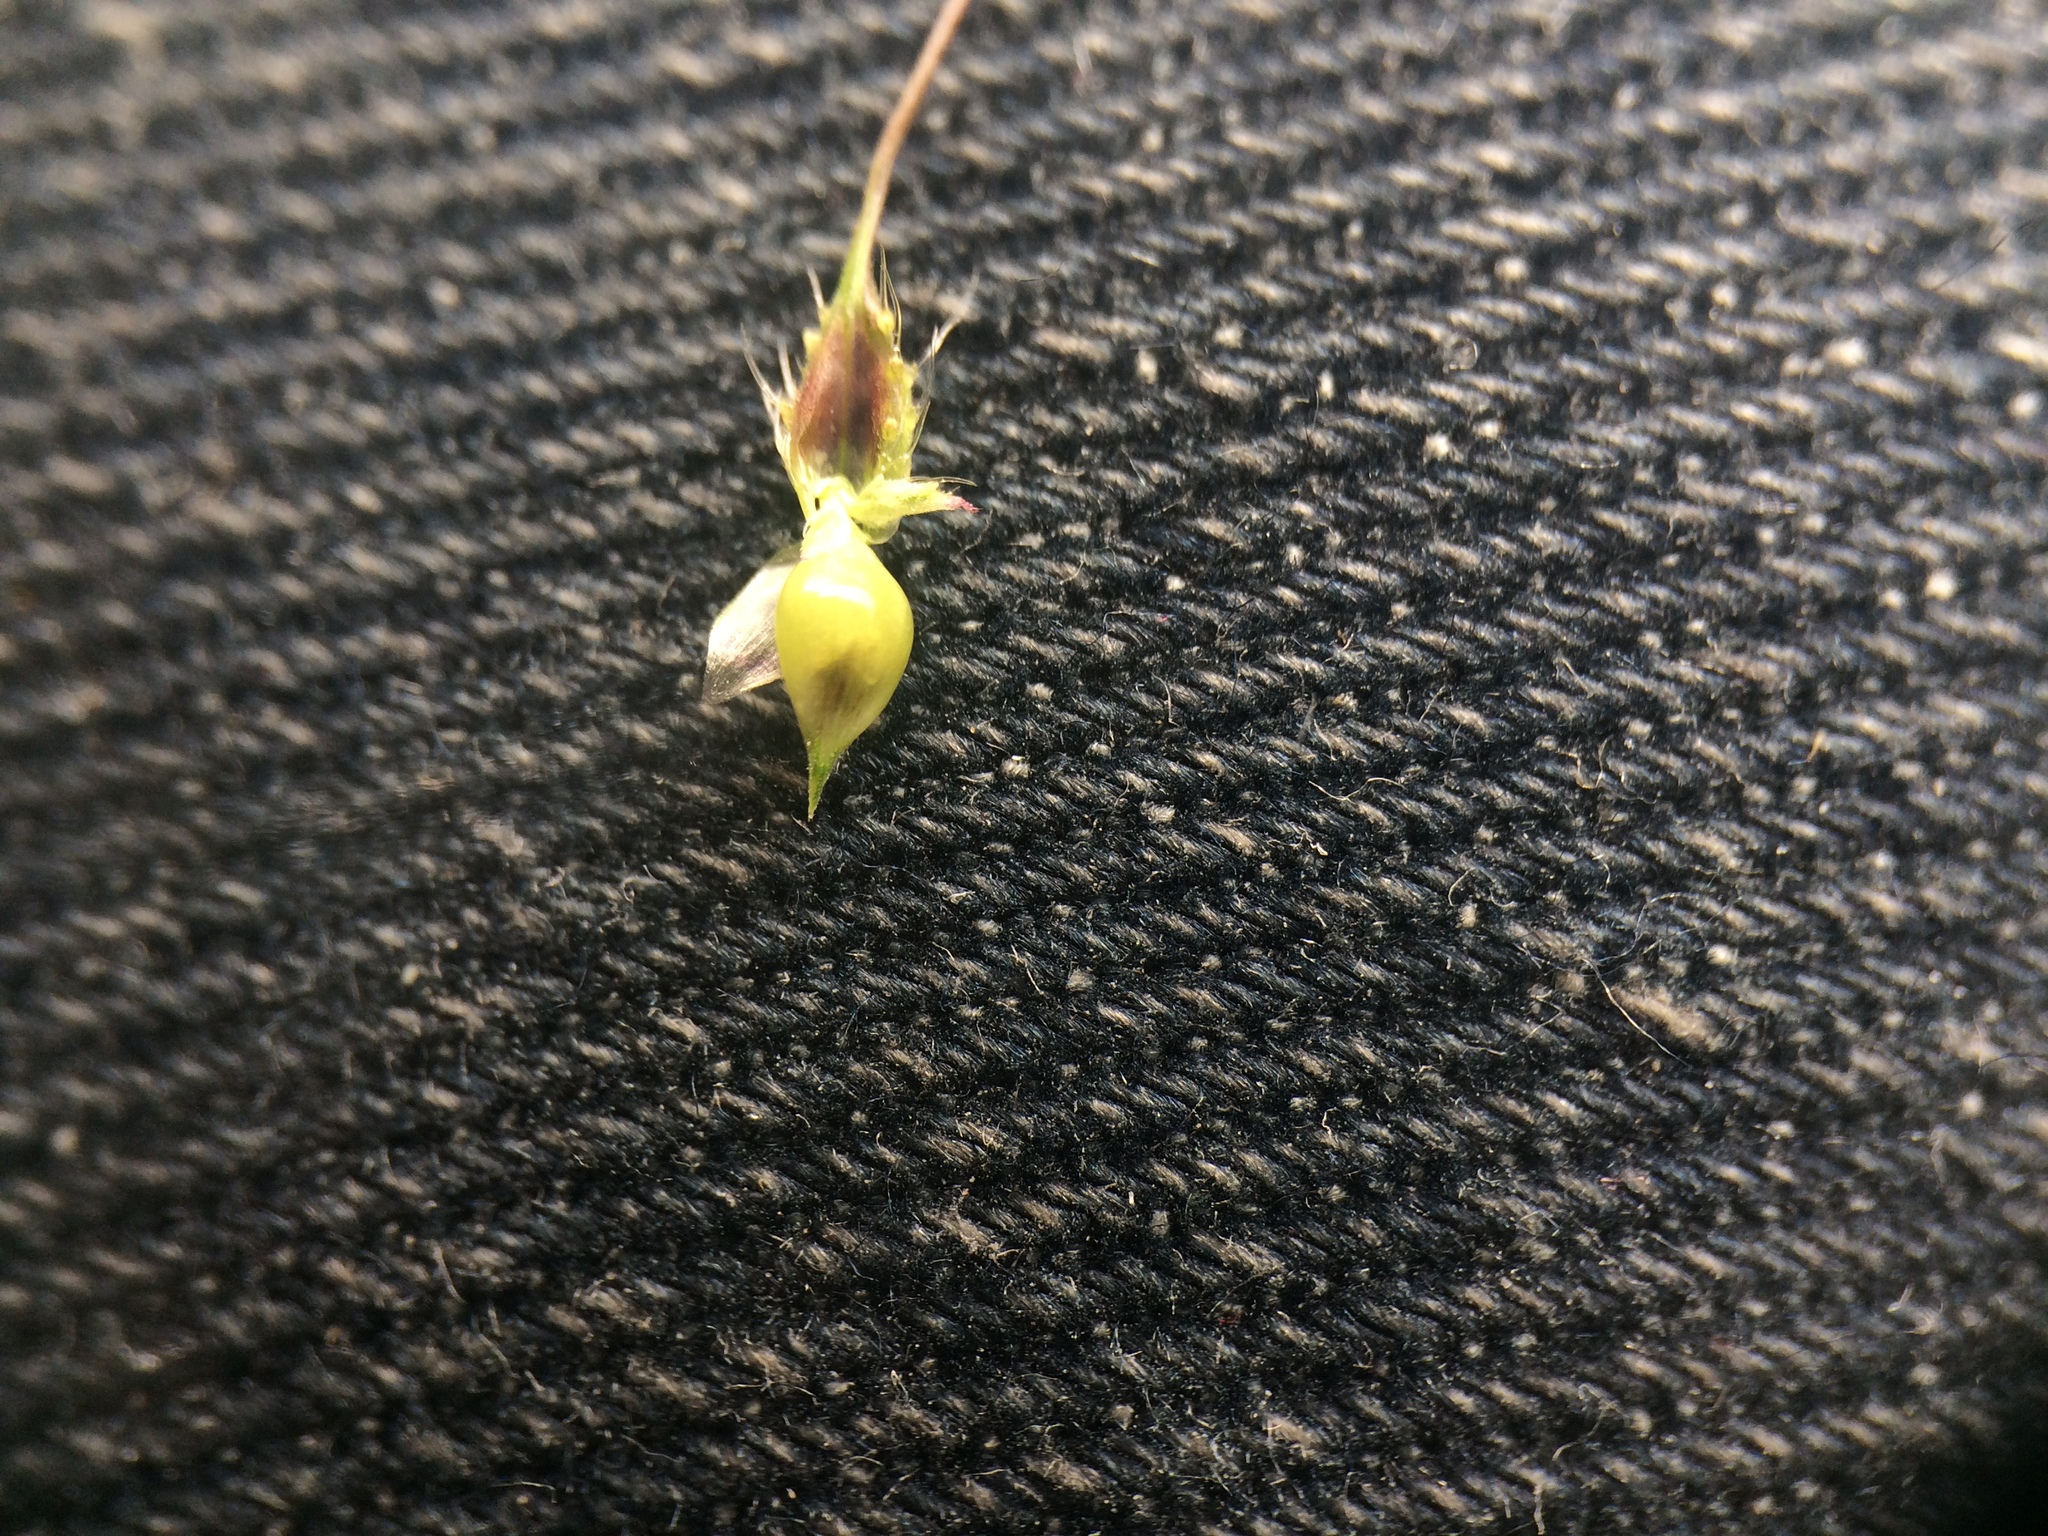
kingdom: Plantae
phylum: Tracheophyta
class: Liliopsida
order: Poales
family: Poaceae
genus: Echinochloa
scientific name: Echinochloa muricata
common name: American barnyard grass
